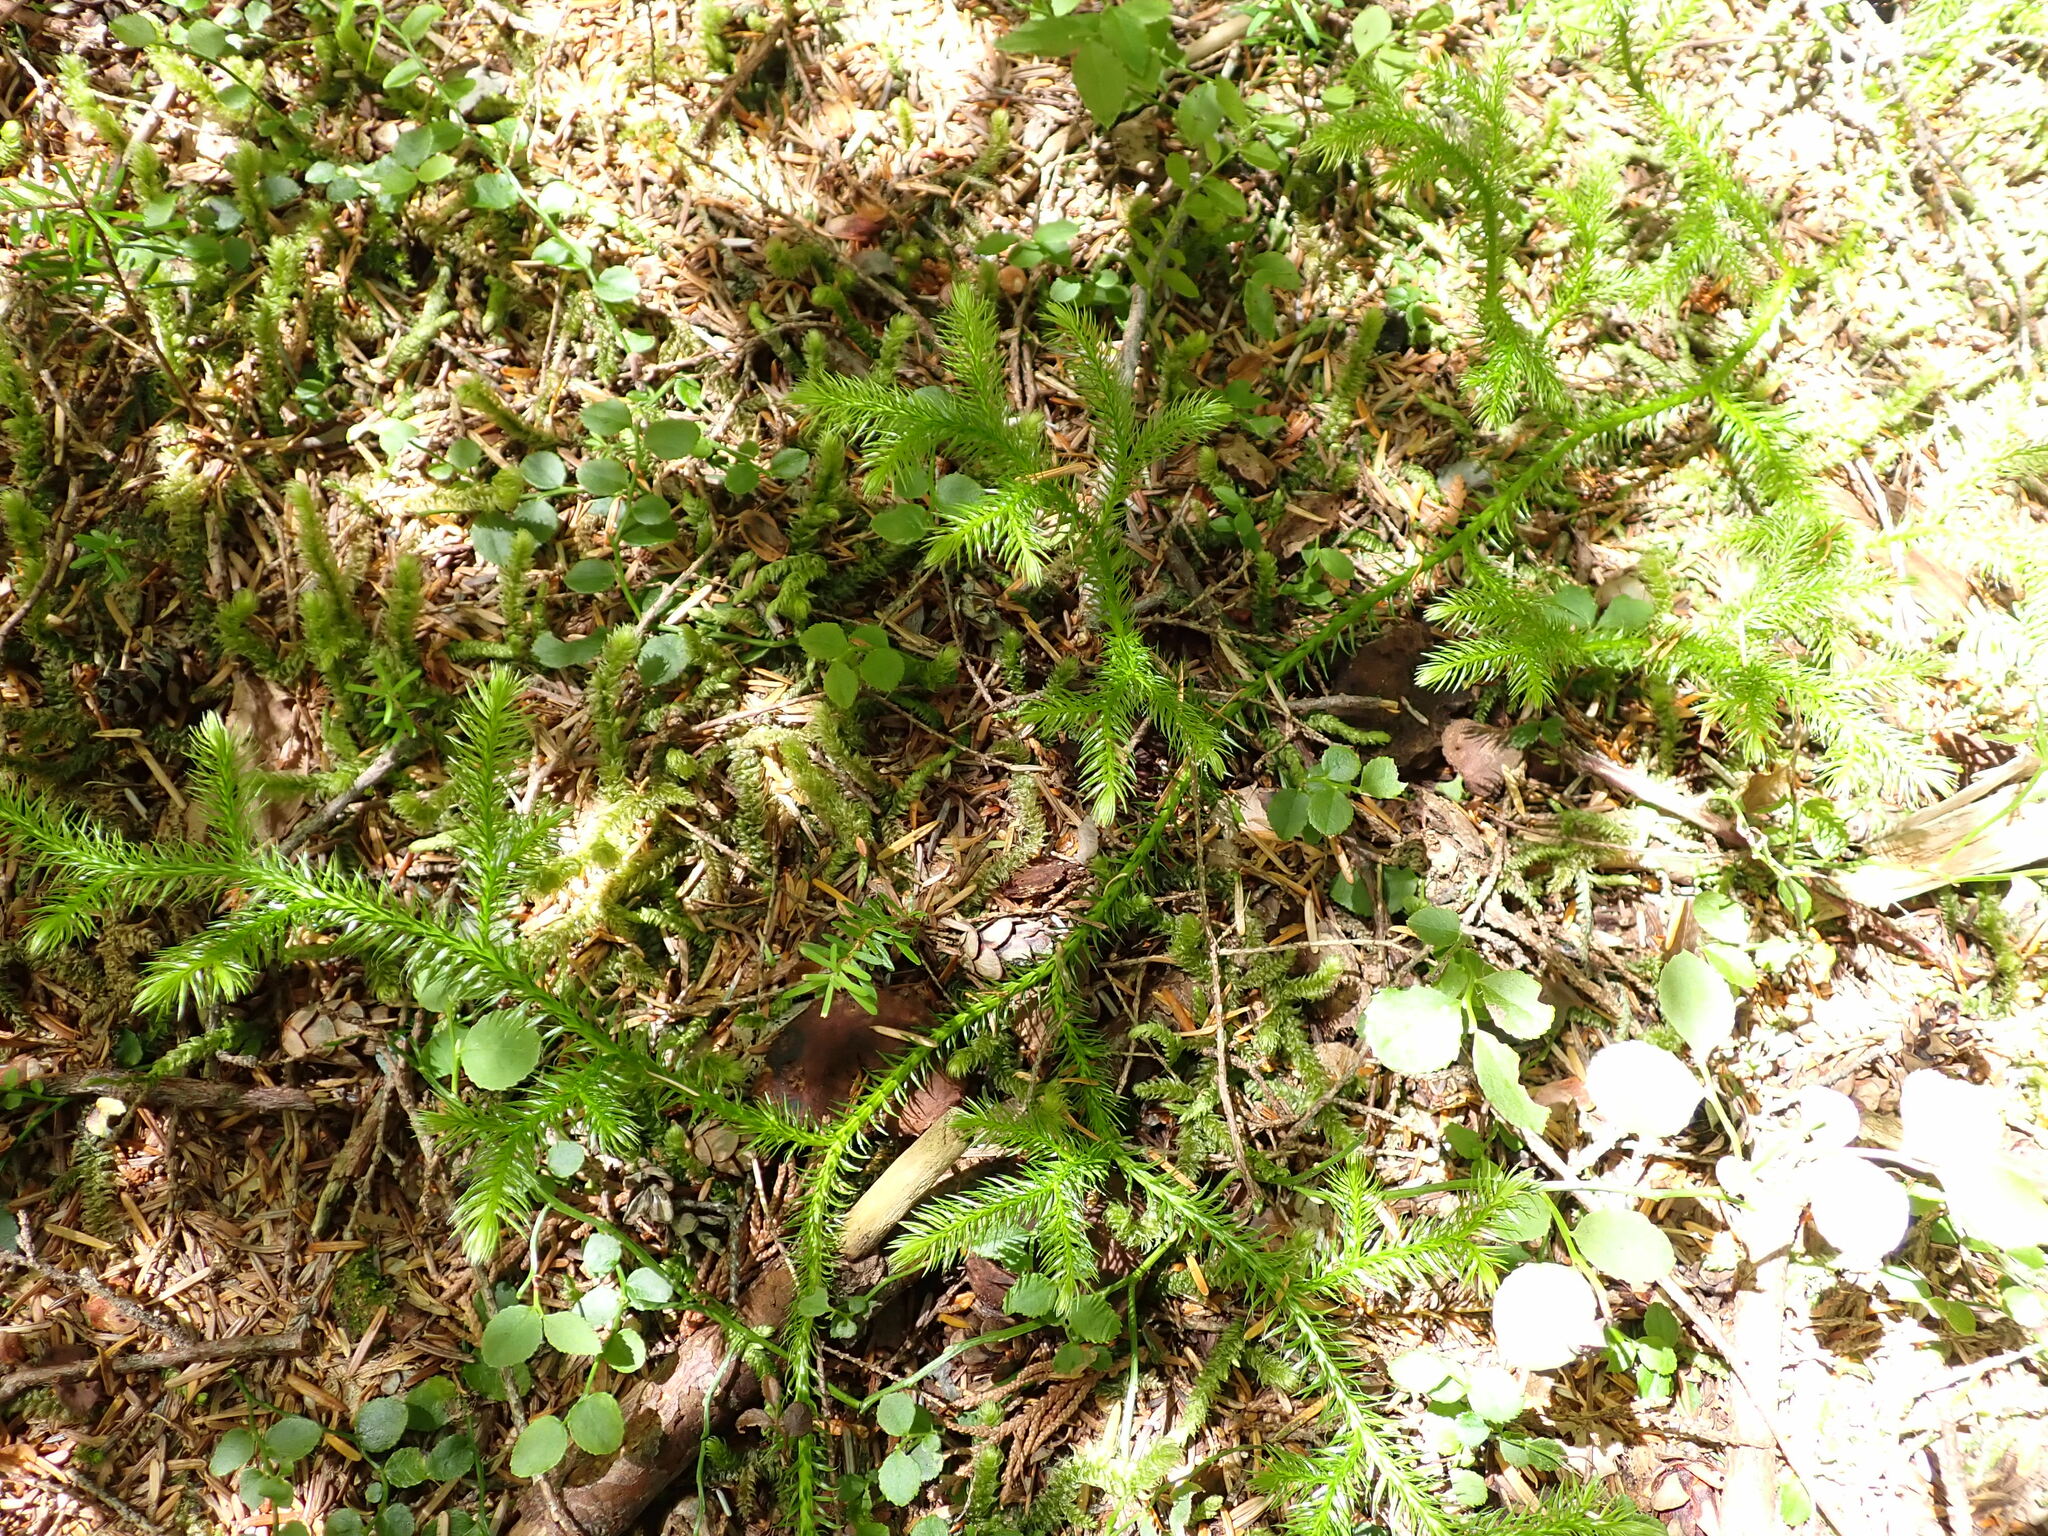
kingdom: Plantae
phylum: Tracheophyta
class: Lycopodiopsida
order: Lycopodiales
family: Lycopodiaceae
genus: Lycopodium
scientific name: Lycopodium clavatum
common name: Stag's-horn clubmoss
